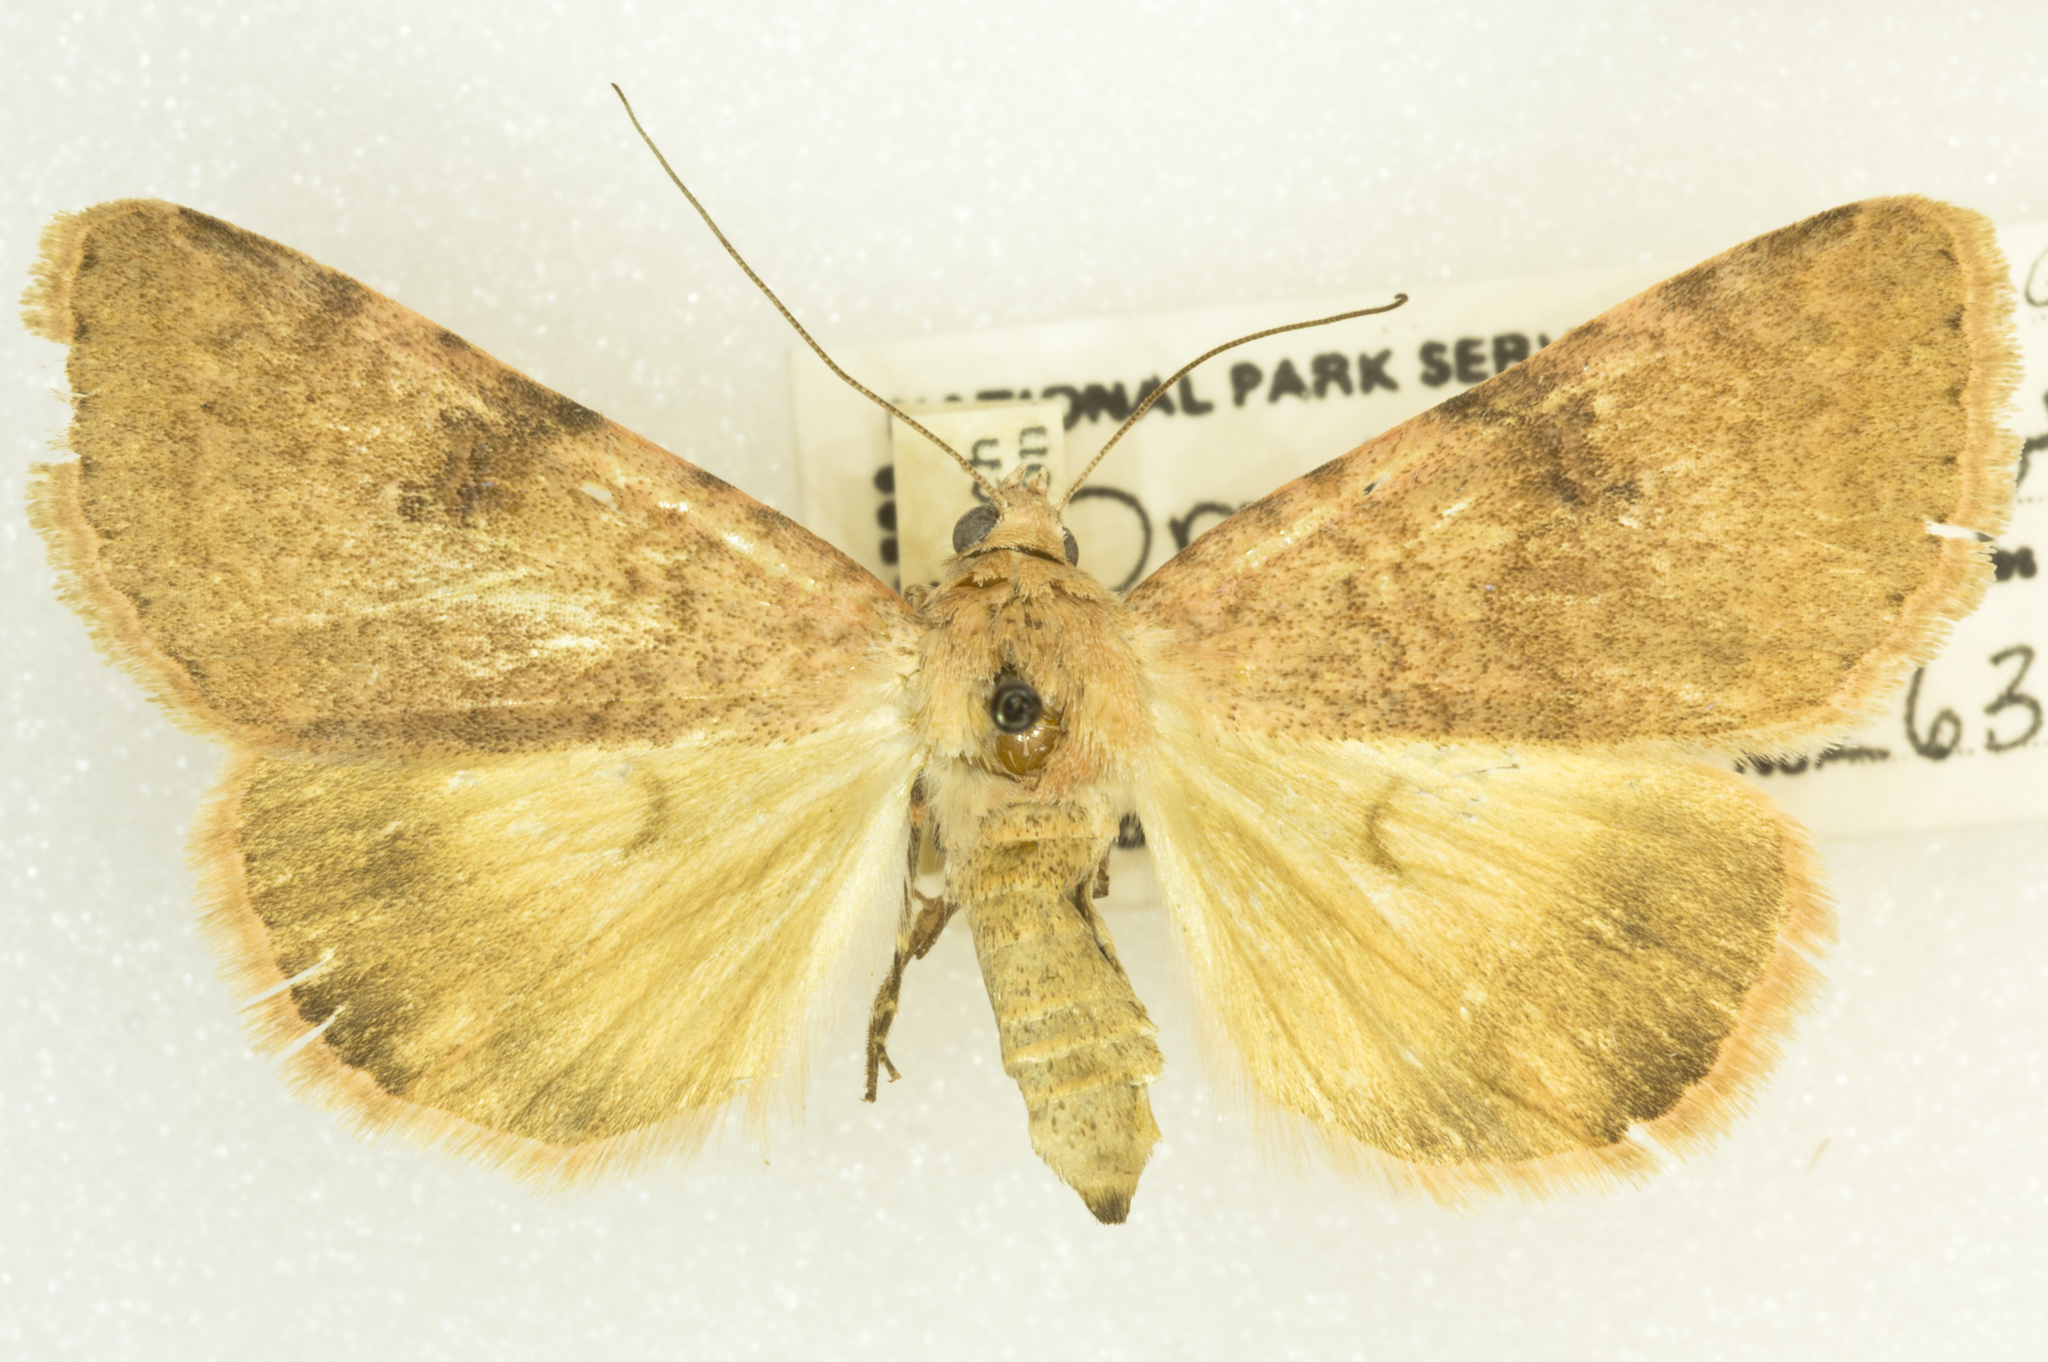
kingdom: Animalia
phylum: Arthropoda
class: Insecta
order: Lepidoptera
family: Erebidae
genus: Drasteria
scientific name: Drasteria inepta
